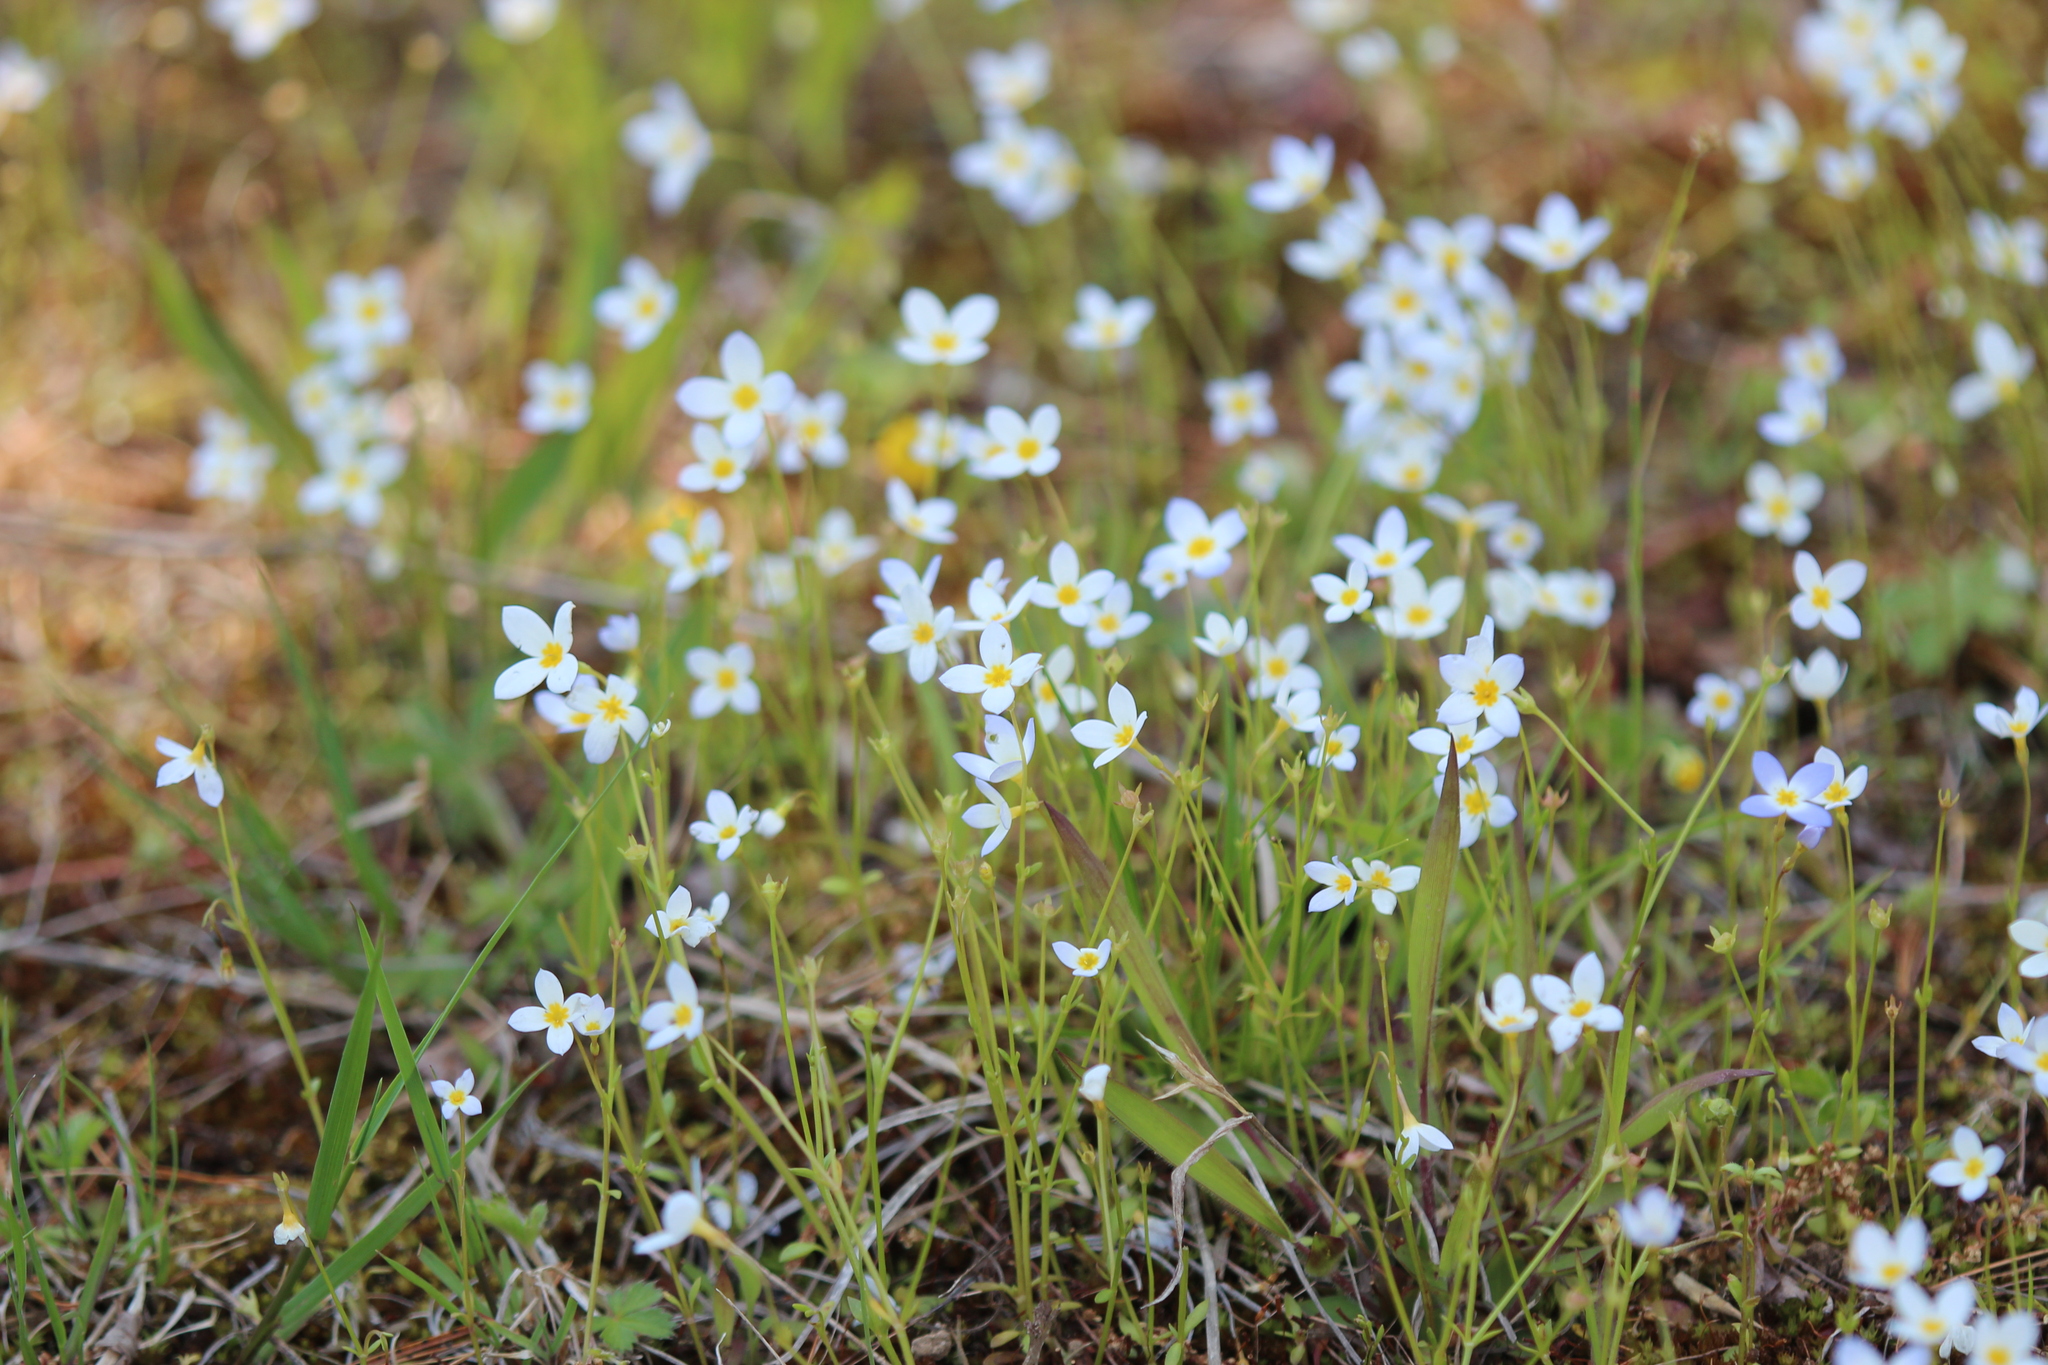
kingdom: Plantae
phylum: Tracheophyta
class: Magnoliopsida
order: Gentianales
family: Rubiaceae
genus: Houstonia
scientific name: Houstonia caerulea
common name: Bluets
